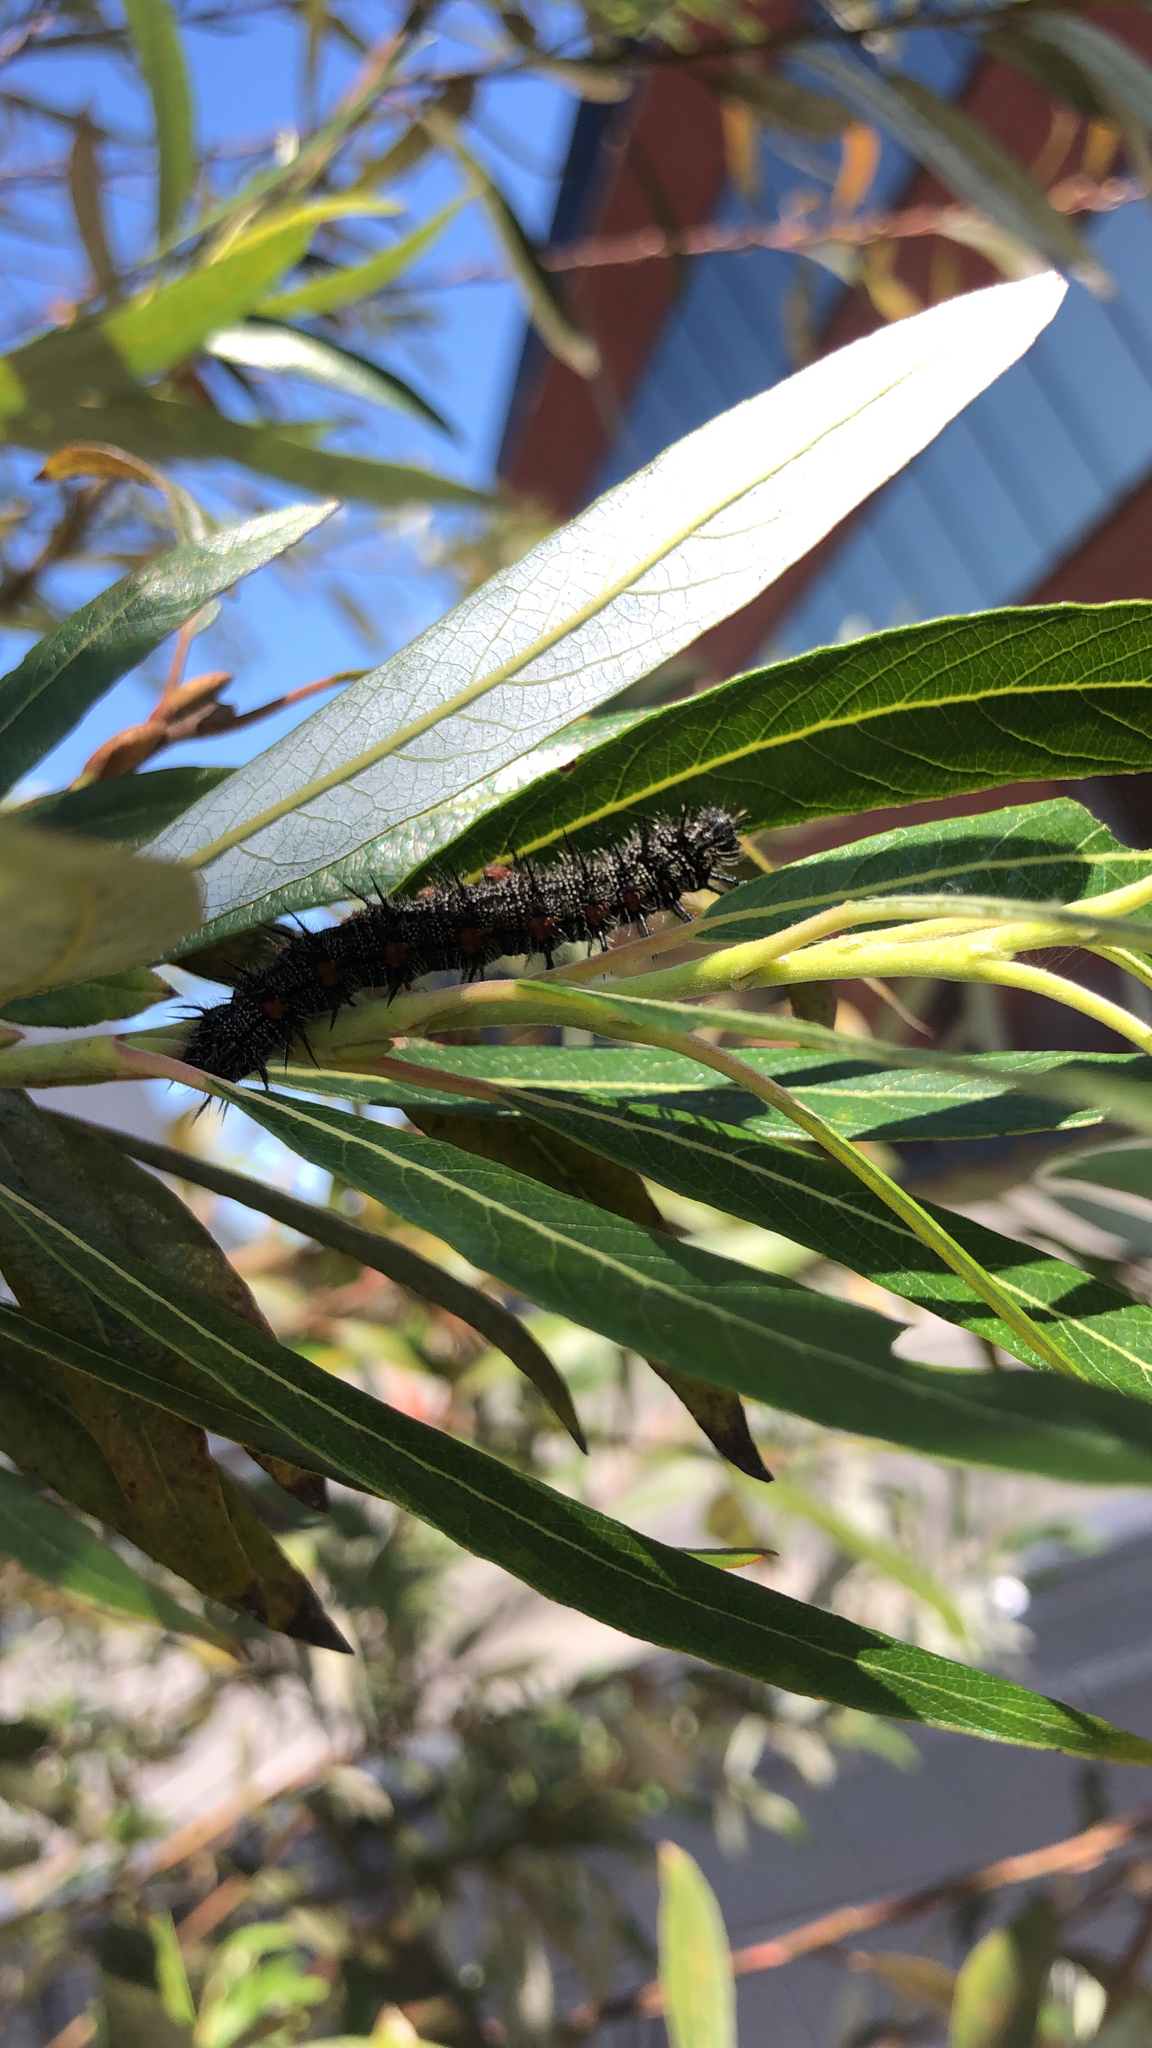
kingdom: Animalia
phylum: Arthropoda
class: Insecta
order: Lepidoptera
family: Nymphalidae
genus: Nymphalis
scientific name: Nymphalis antiopa
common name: Camberwell beauty
